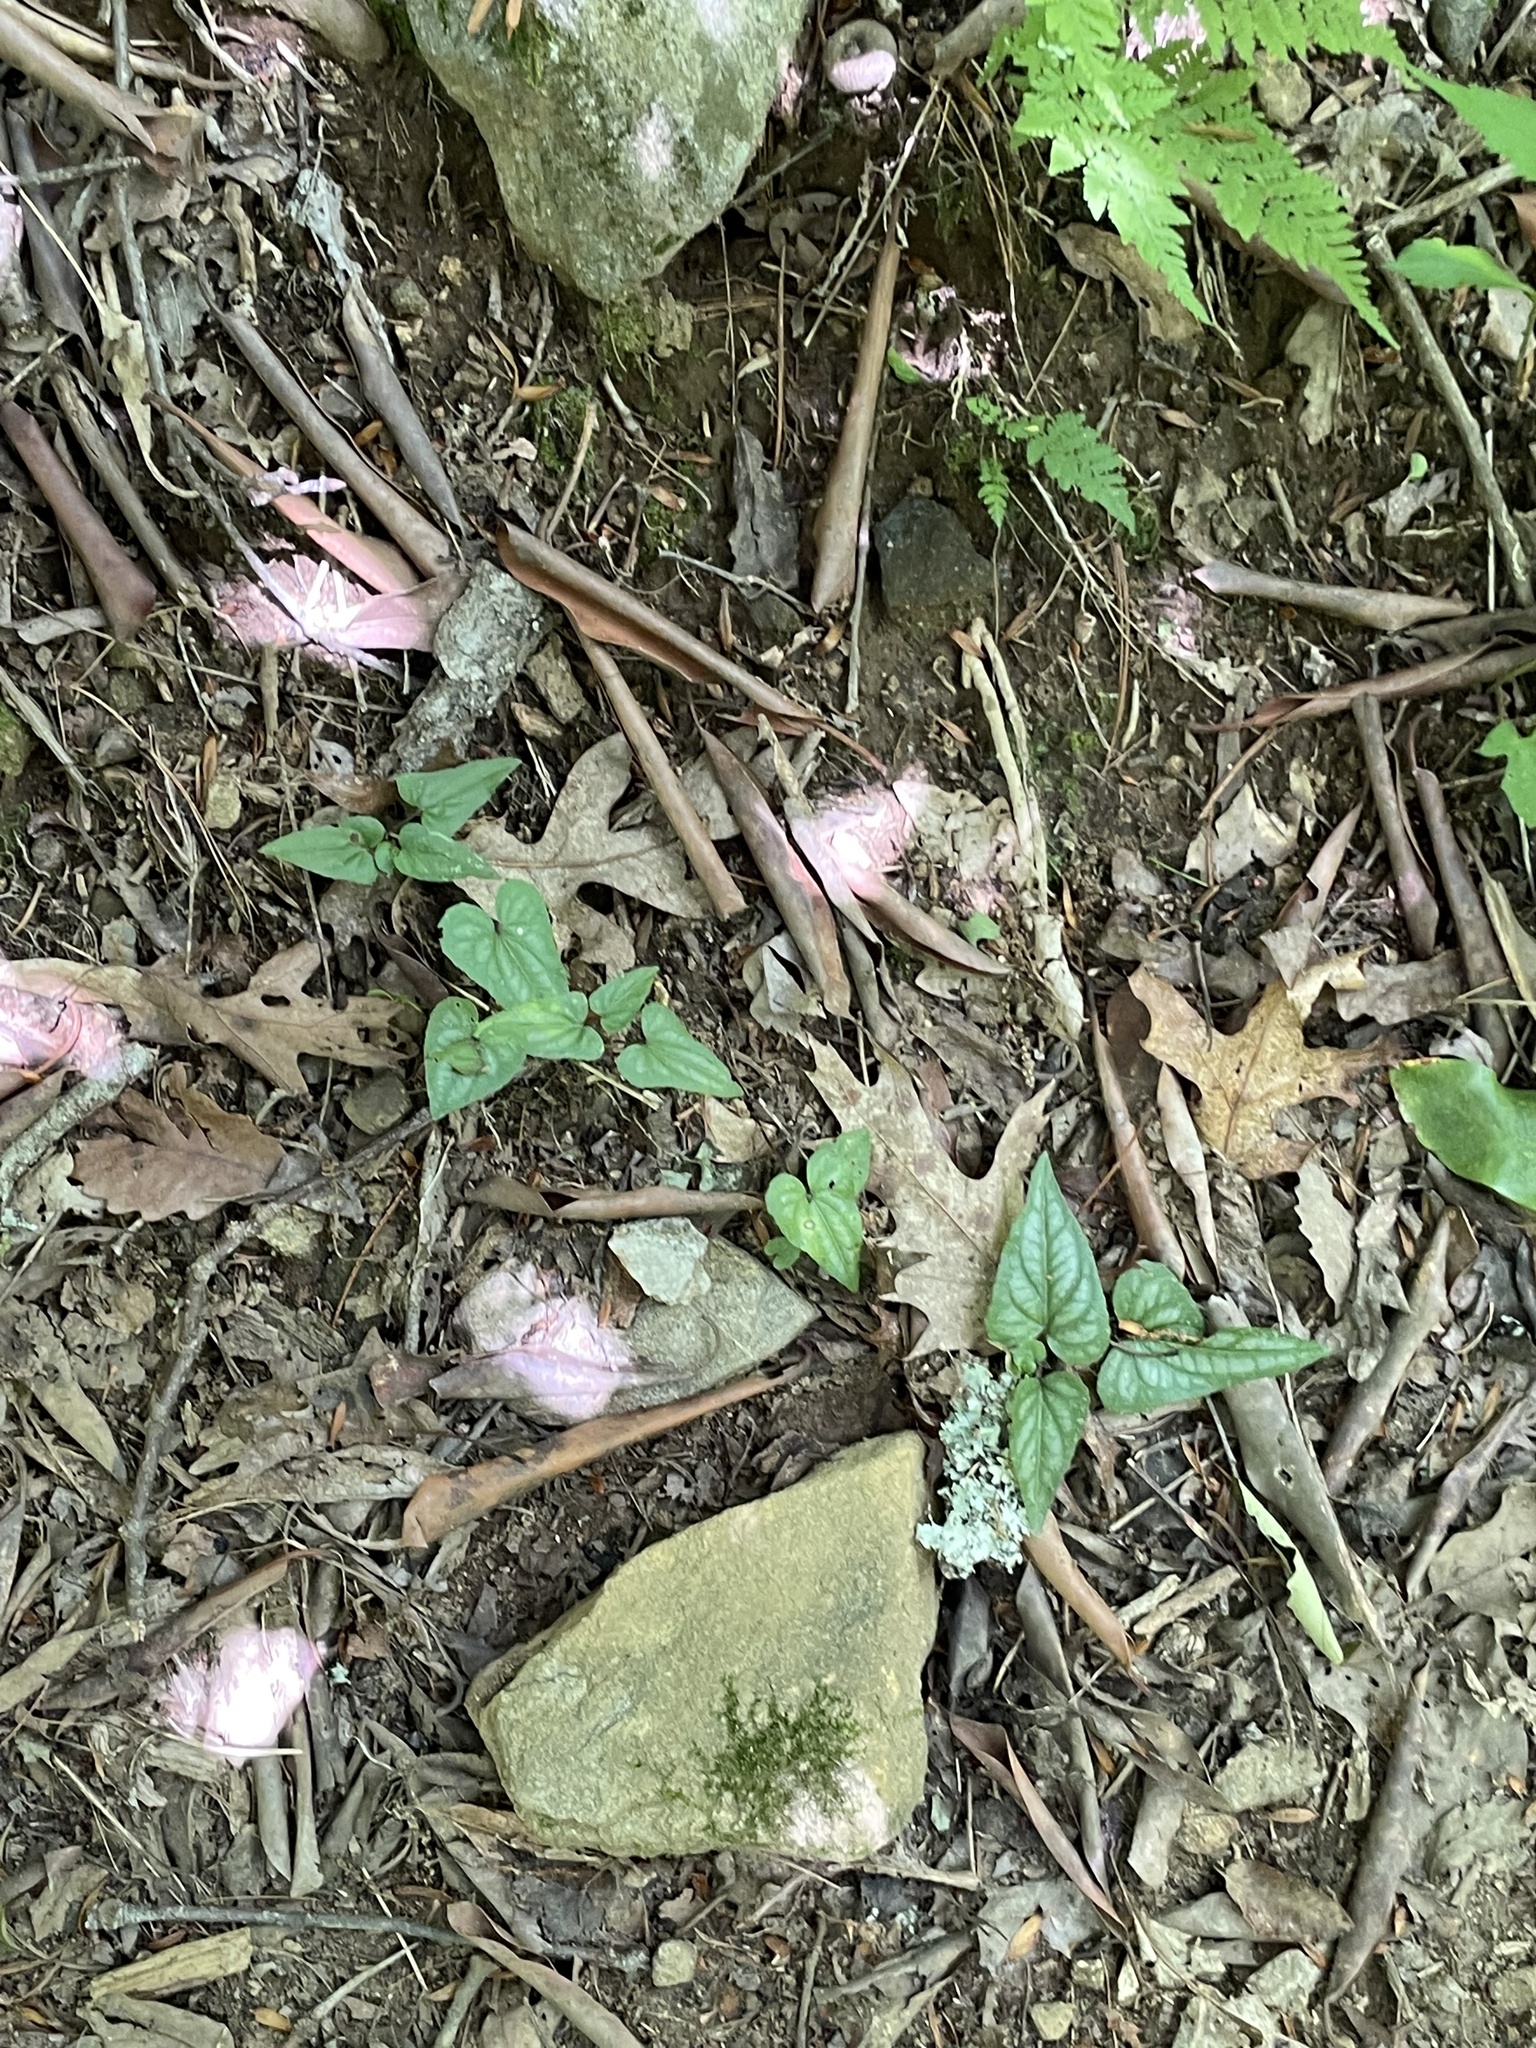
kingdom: Plantae
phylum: Tracheophyta
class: Magnoliopsida
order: Malpighiales
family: Violaceae
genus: Viola
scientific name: Viola hastata
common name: Spear-leaf violet
